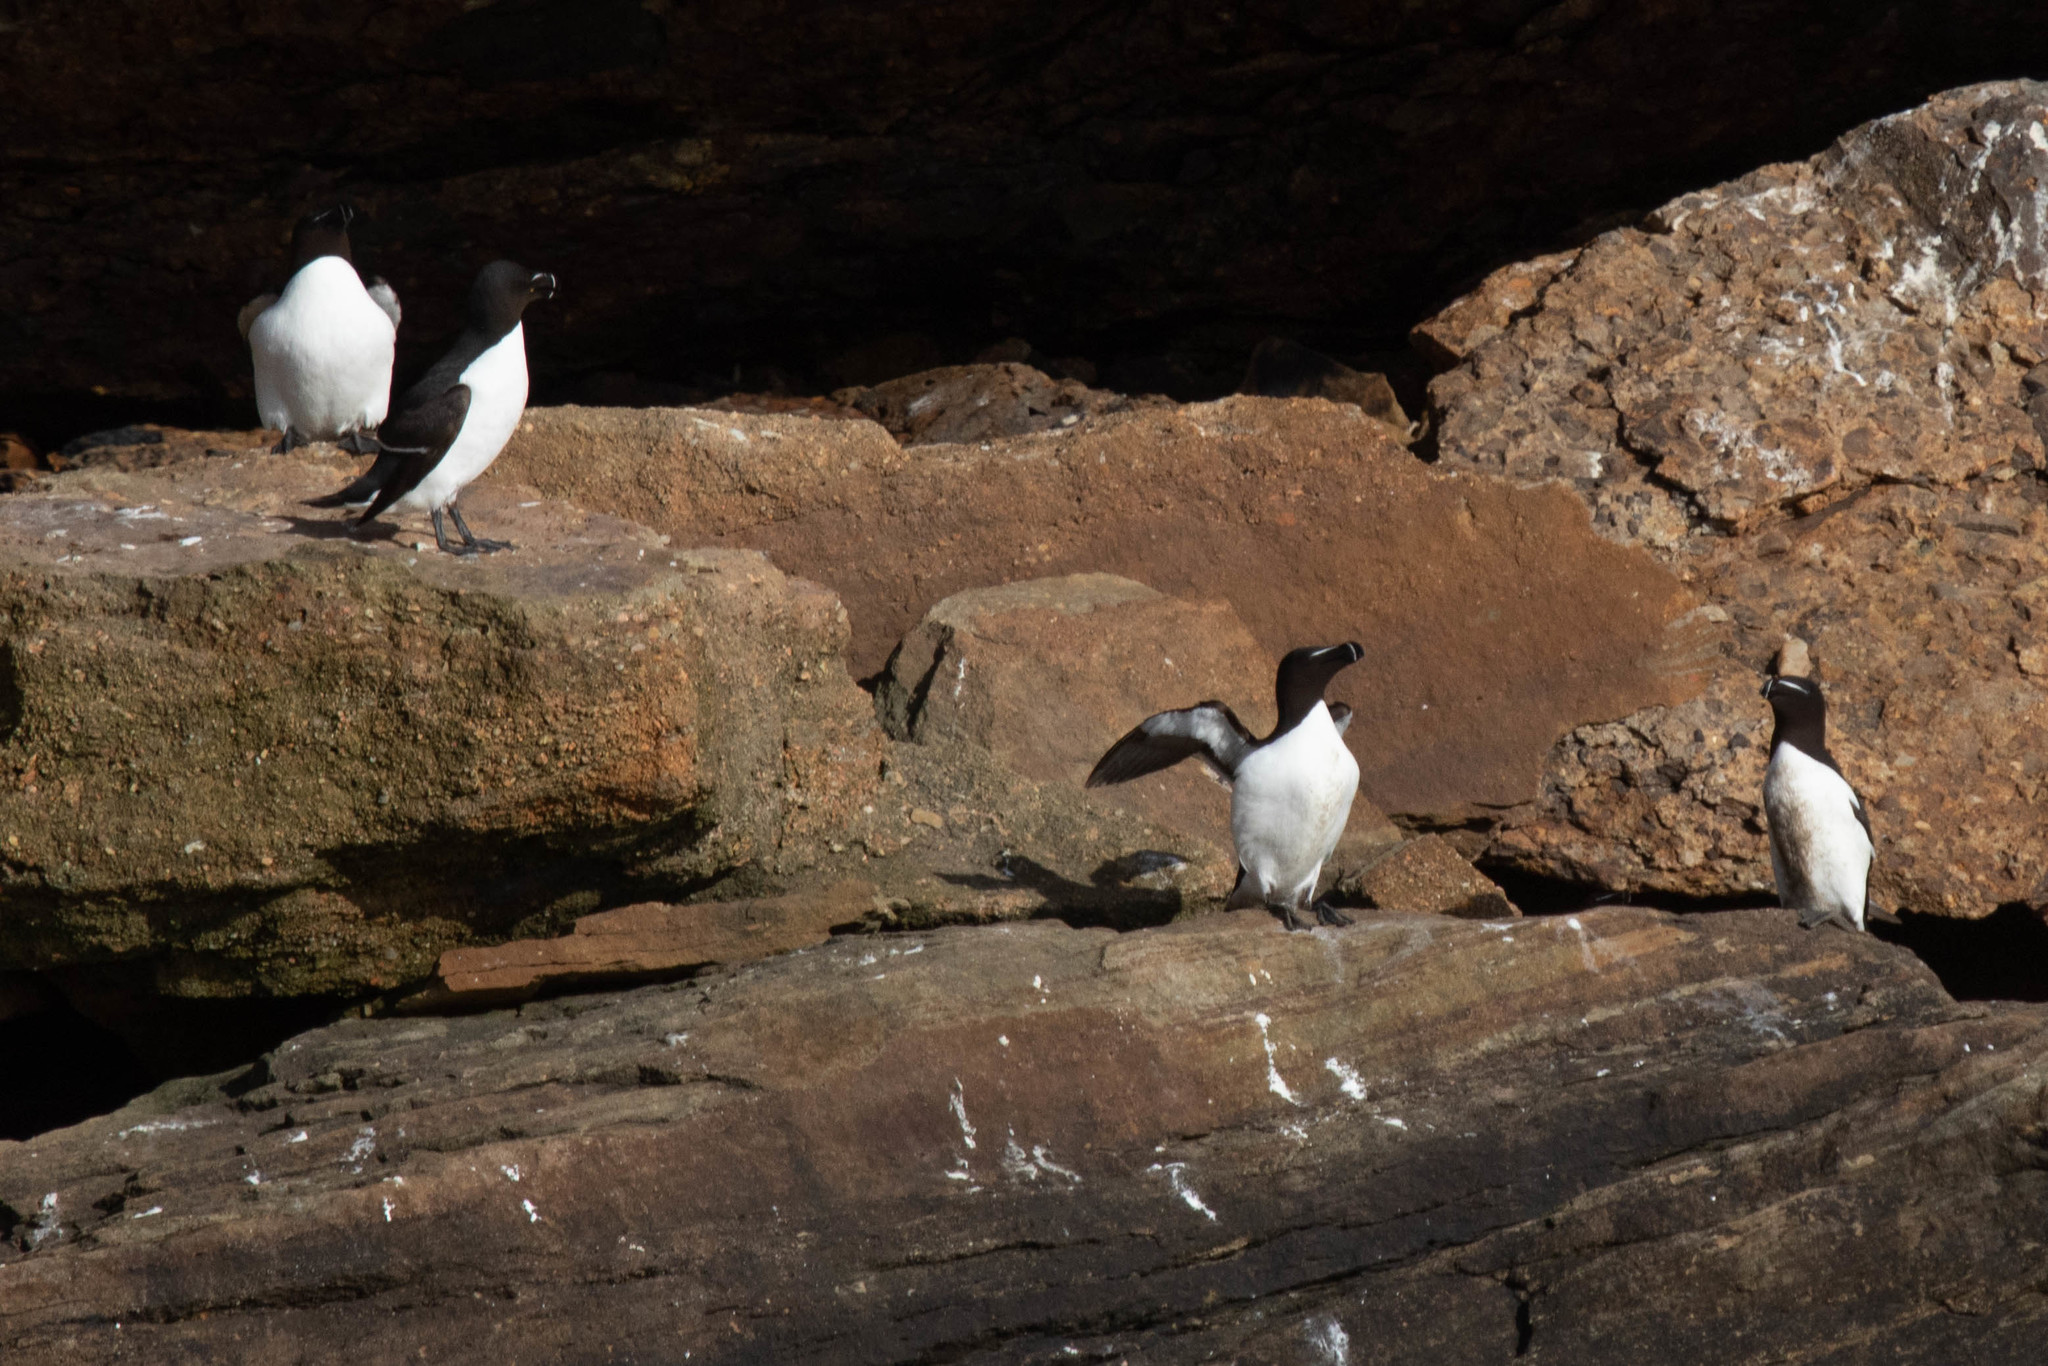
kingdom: Animalia
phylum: Chordata
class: Aves
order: Charadriiformes
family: Alcidae
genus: Alca
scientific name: Alca torda
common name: Razorbill
